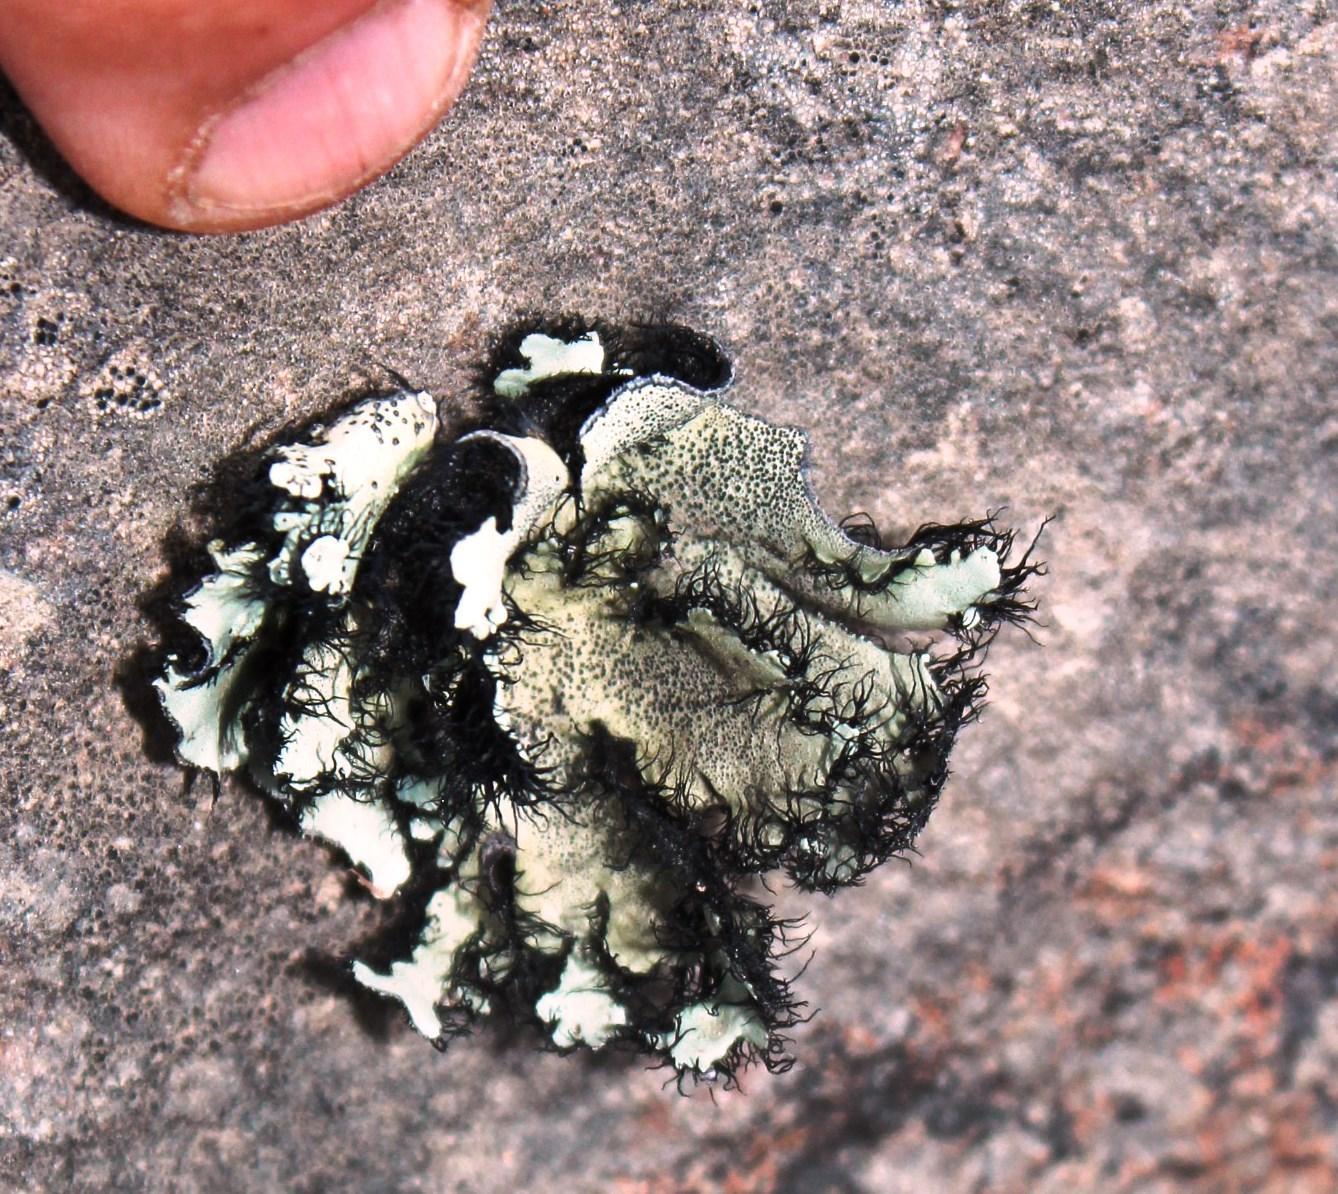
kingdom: Fungi
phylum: Ascomycota
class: Lecanoromycetes
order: Lecanorales
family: Parmeliaceae
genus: Xanthoparmelia
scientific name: Xanthoparmelia hottentotta
